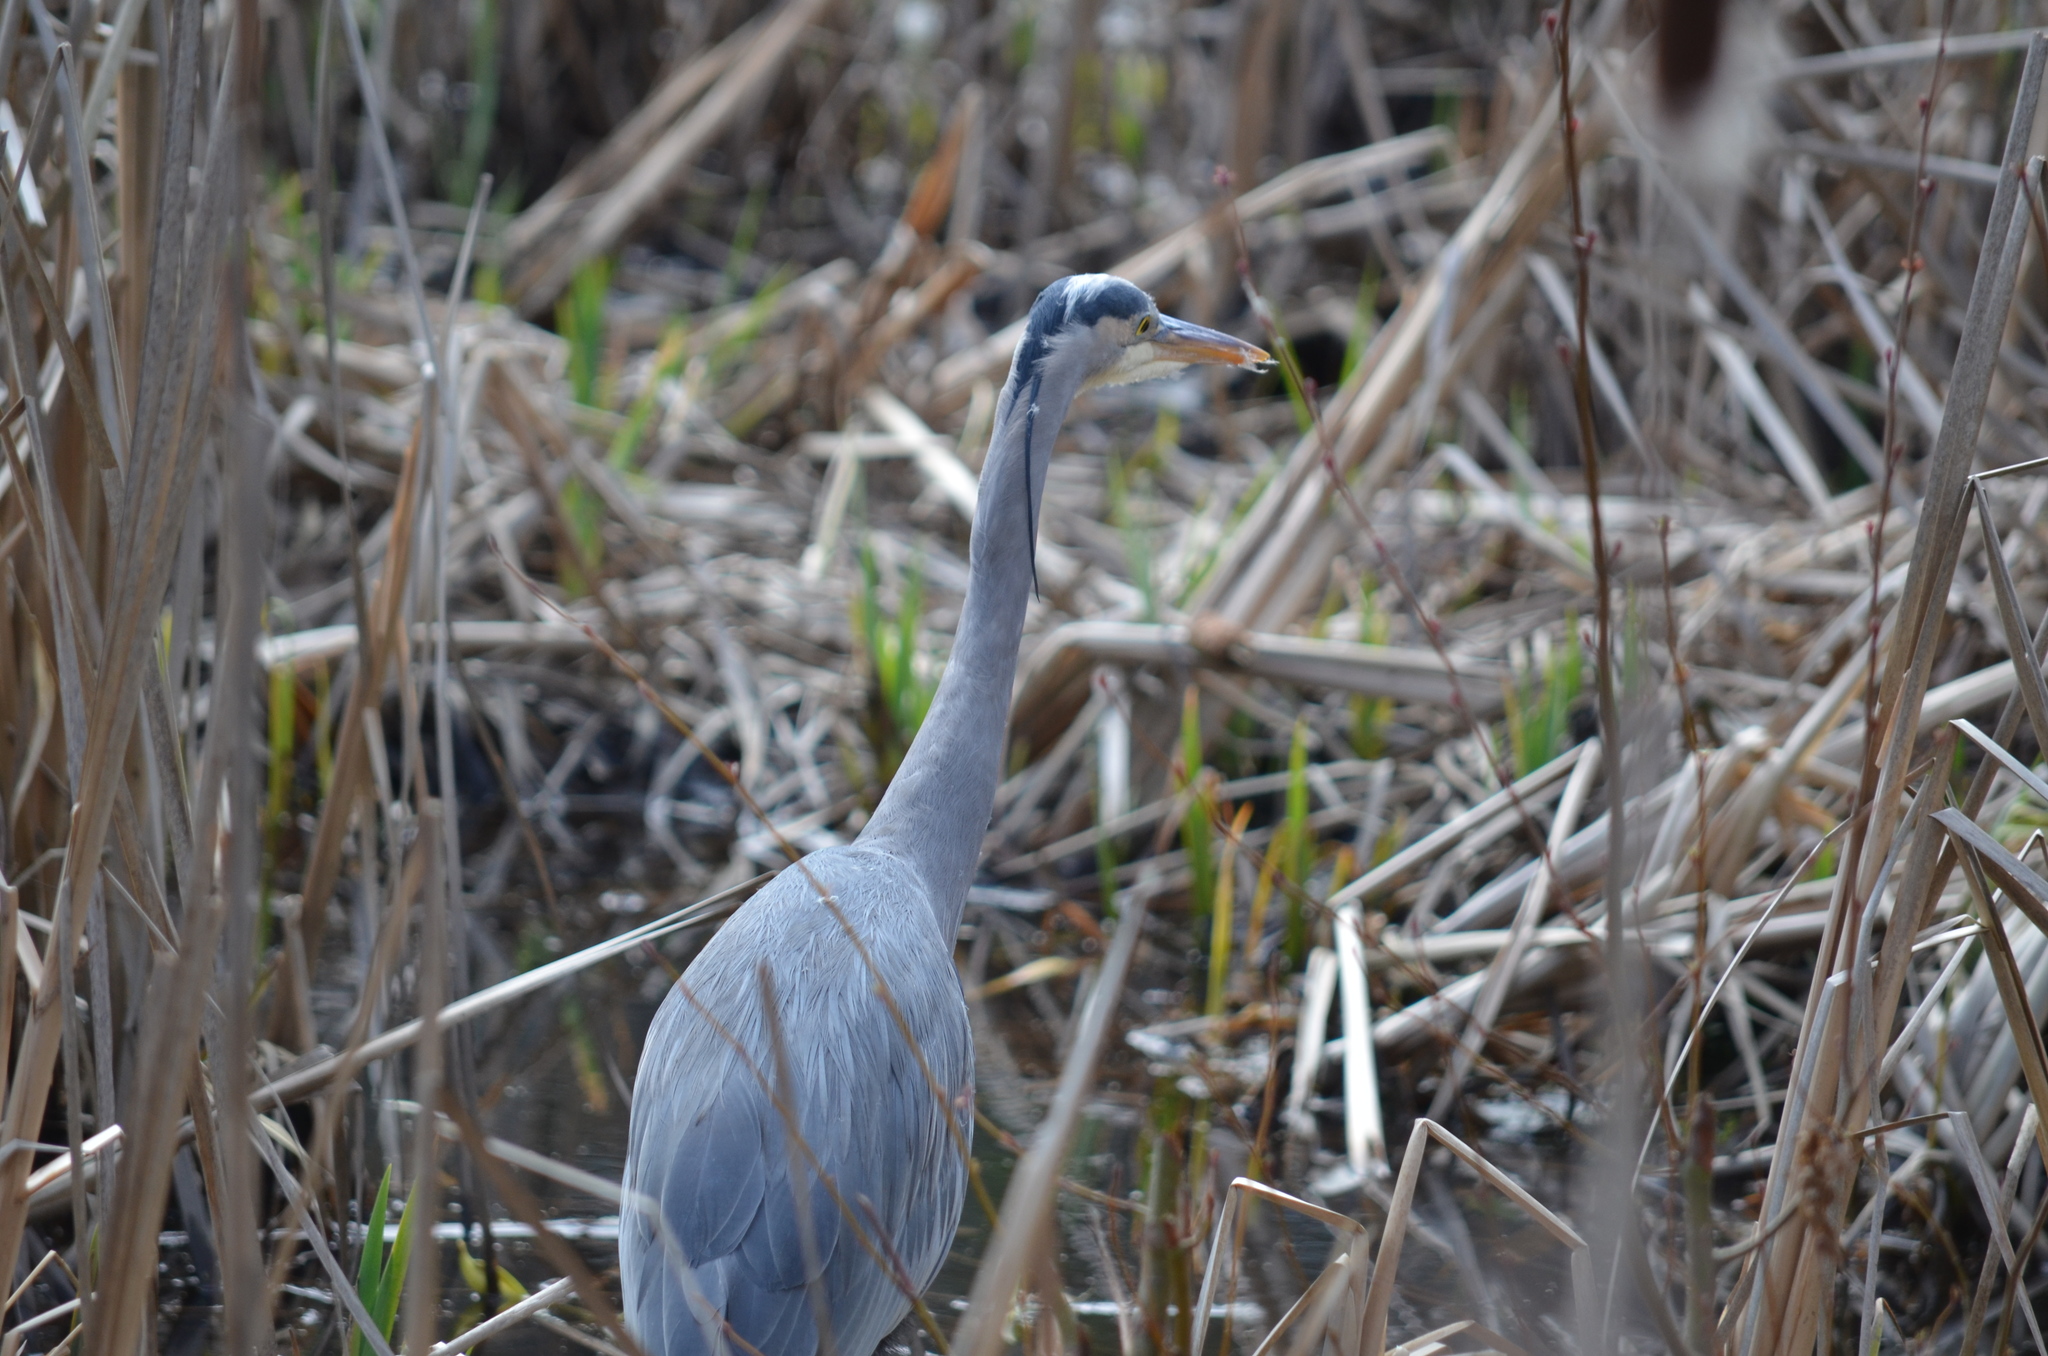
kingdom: Animalia
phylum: Chordata
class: Aves
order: Pelecaniformes
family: Ardeidae
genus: Ardea
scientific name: Ardea herodias
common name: Great blue heron
